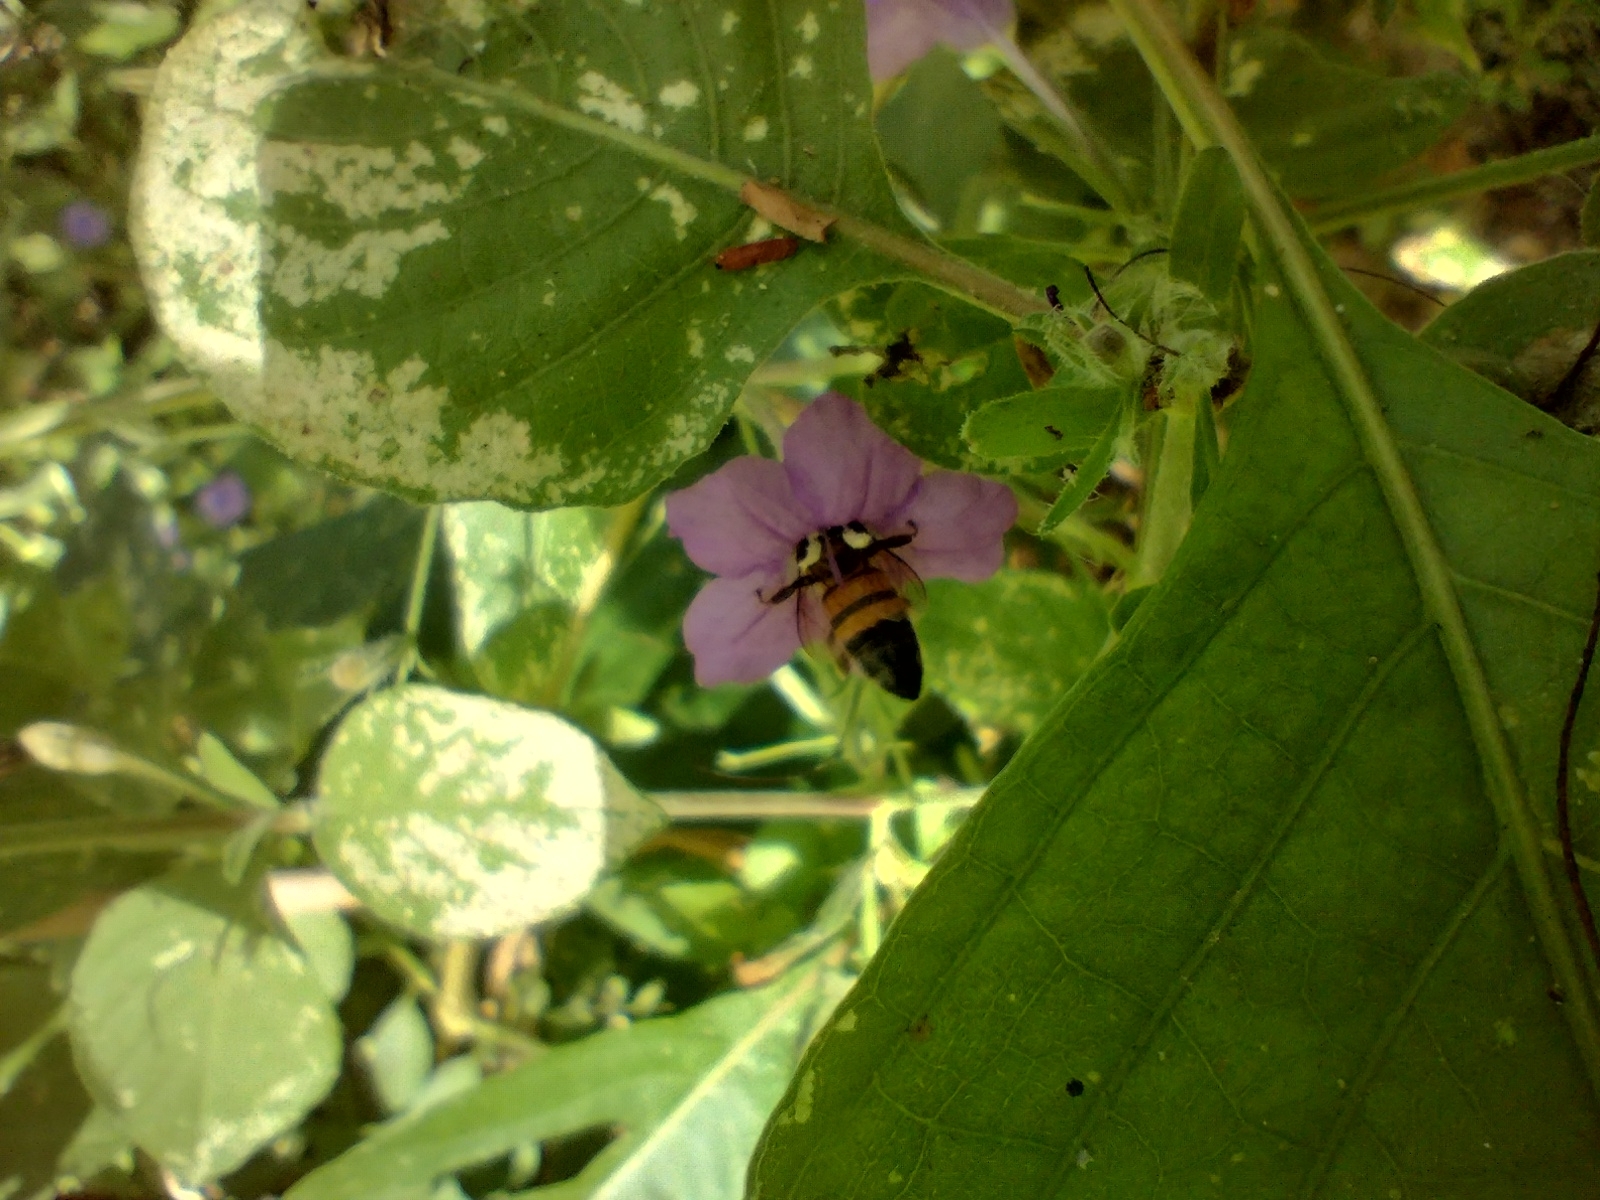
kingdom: Animalia
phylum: Arthropoda
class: Insecta
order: Hymenoptera
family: Apidae
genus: Apis
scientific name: Apis mellifera
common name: Honey bee
